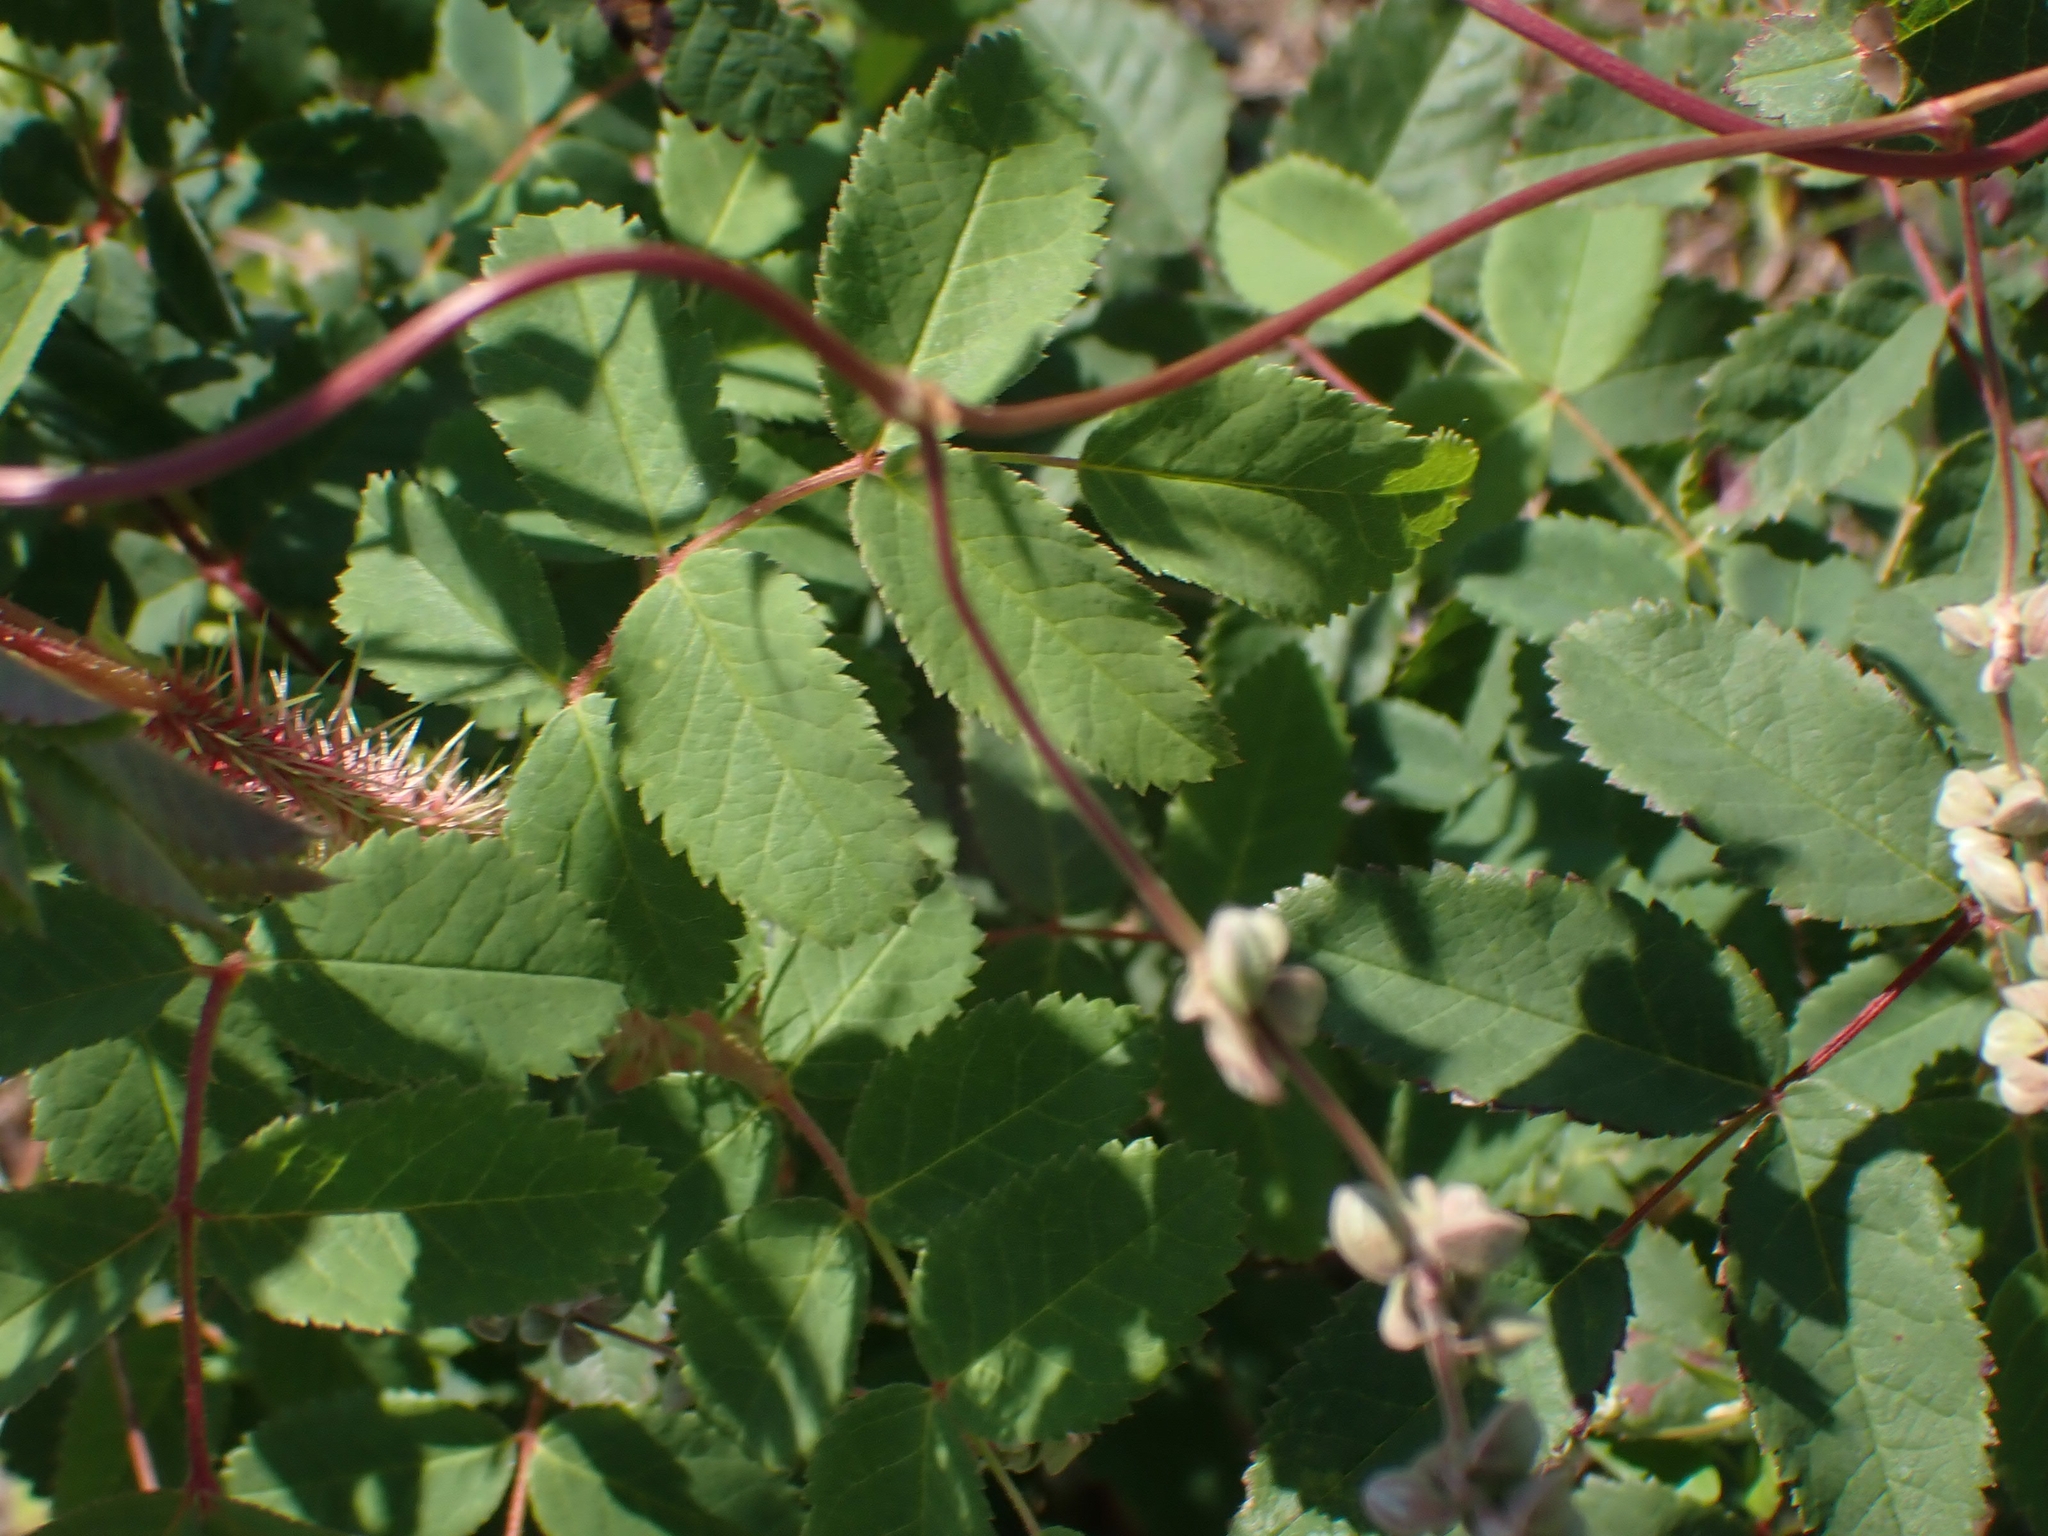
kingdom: Plantae
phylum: Tracheophyta
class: Magnoliopsida
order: Rosales
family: Rosaceae
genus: Rosa
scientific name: Rosa acicularis
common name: Prickly rose
